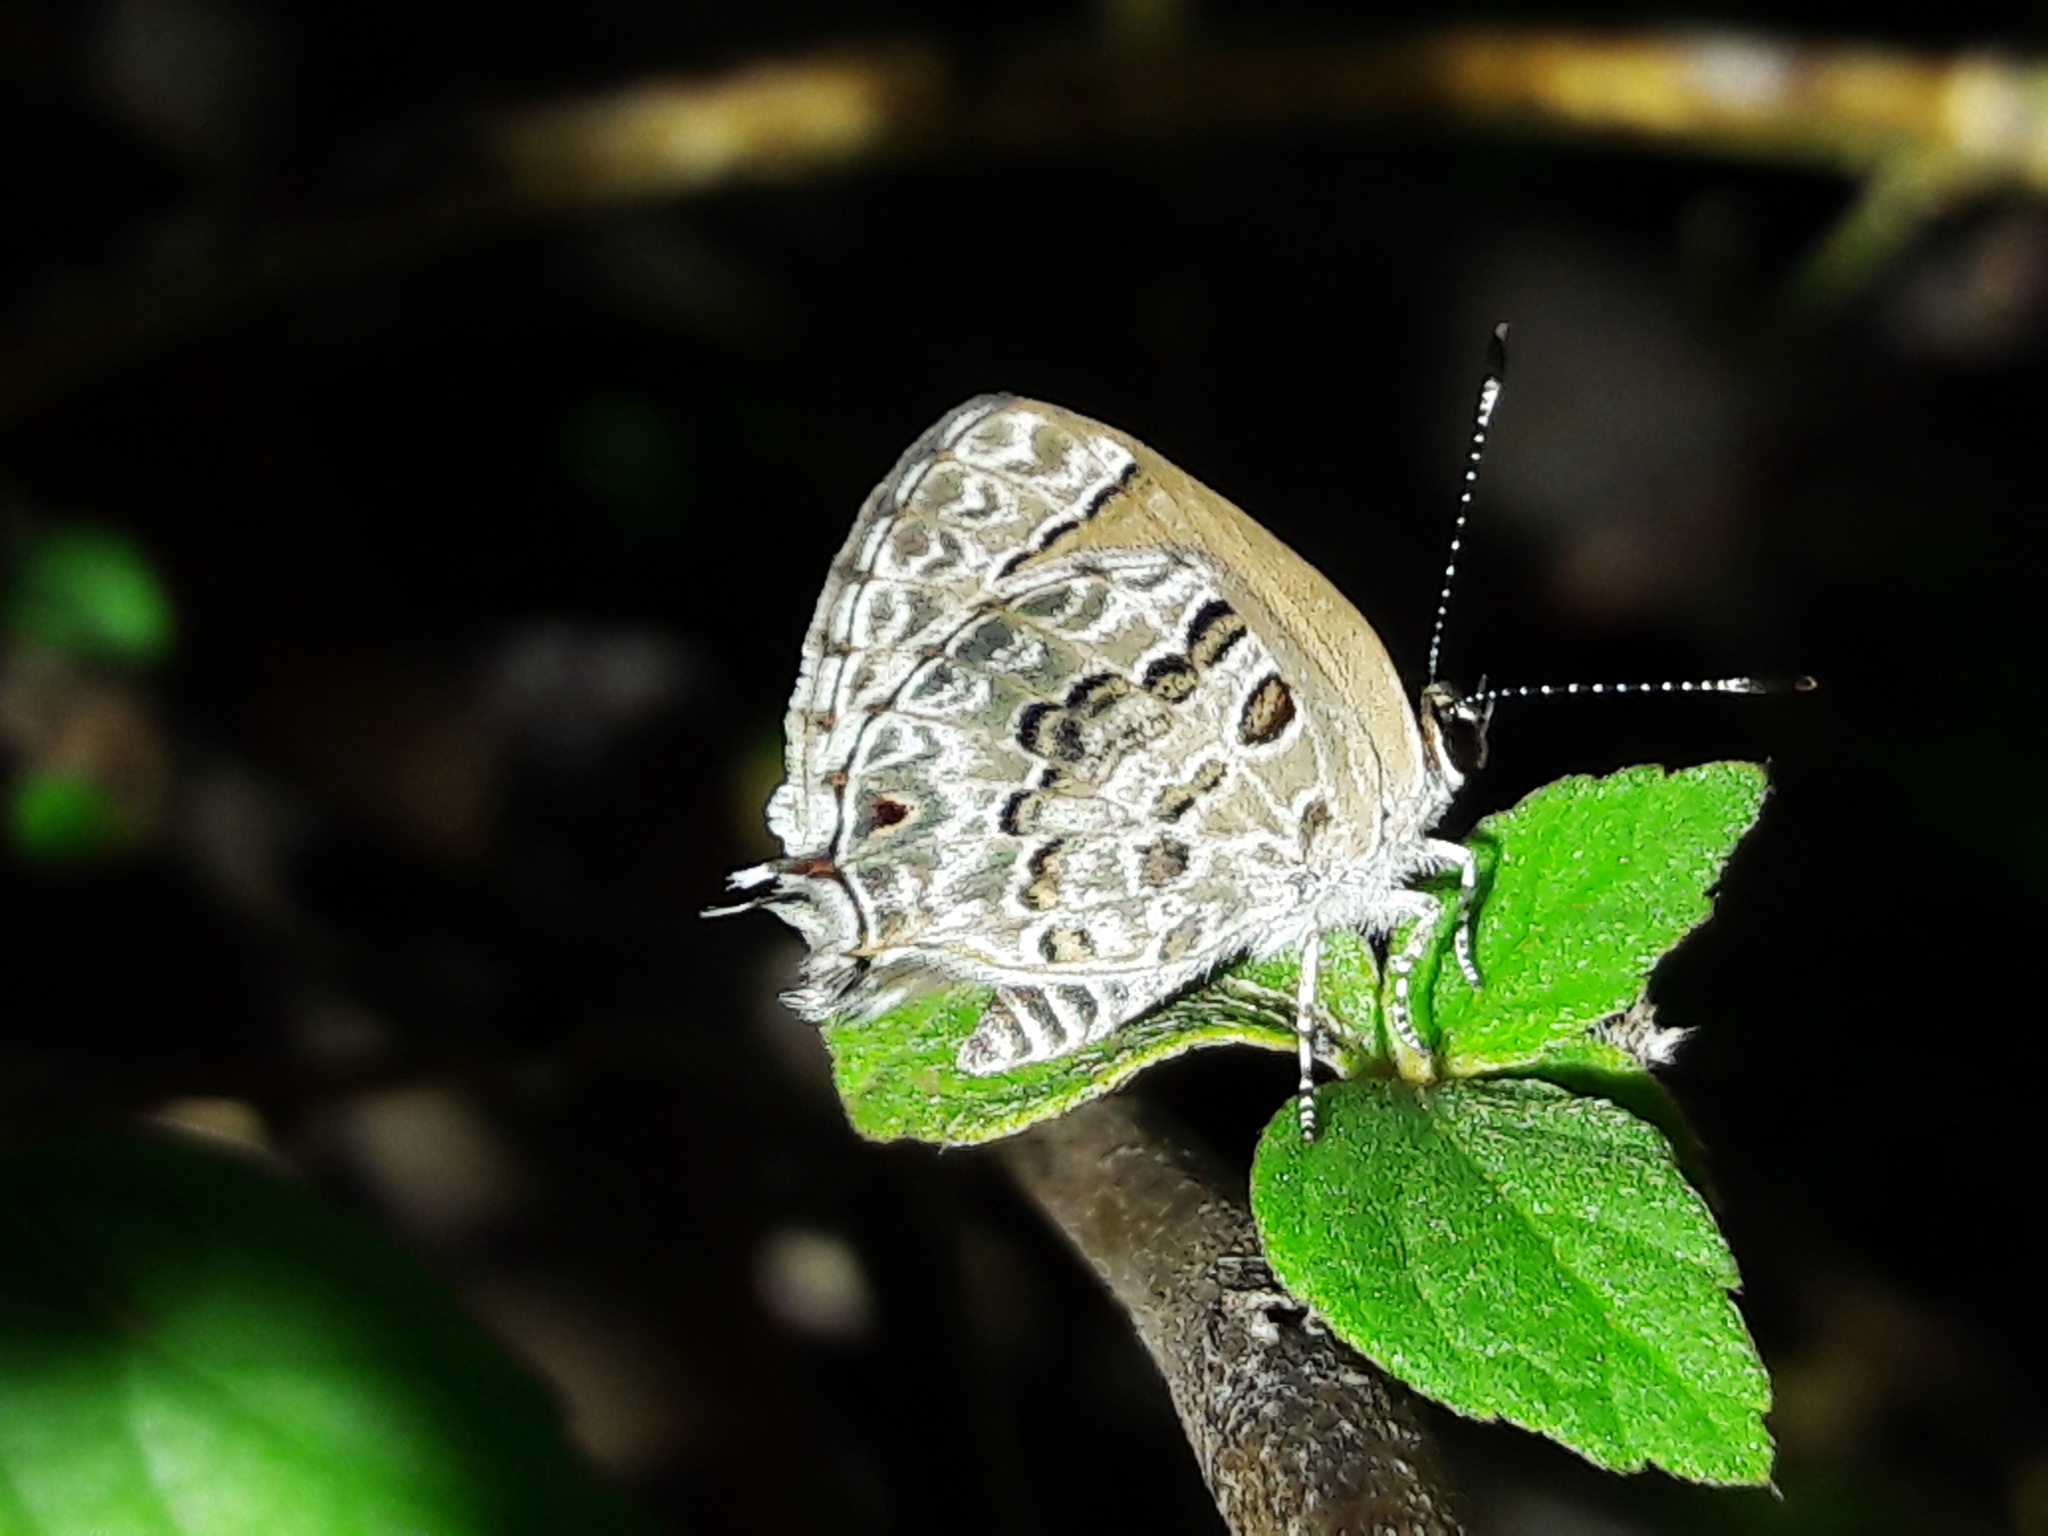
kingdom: Animalia
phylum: Arthropoda
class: Insecta
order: Lepidoptera
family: Lycaenidae
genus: Strymon
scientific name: Strymon astiocha
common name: Gray-spotted scrub-hairstreak
